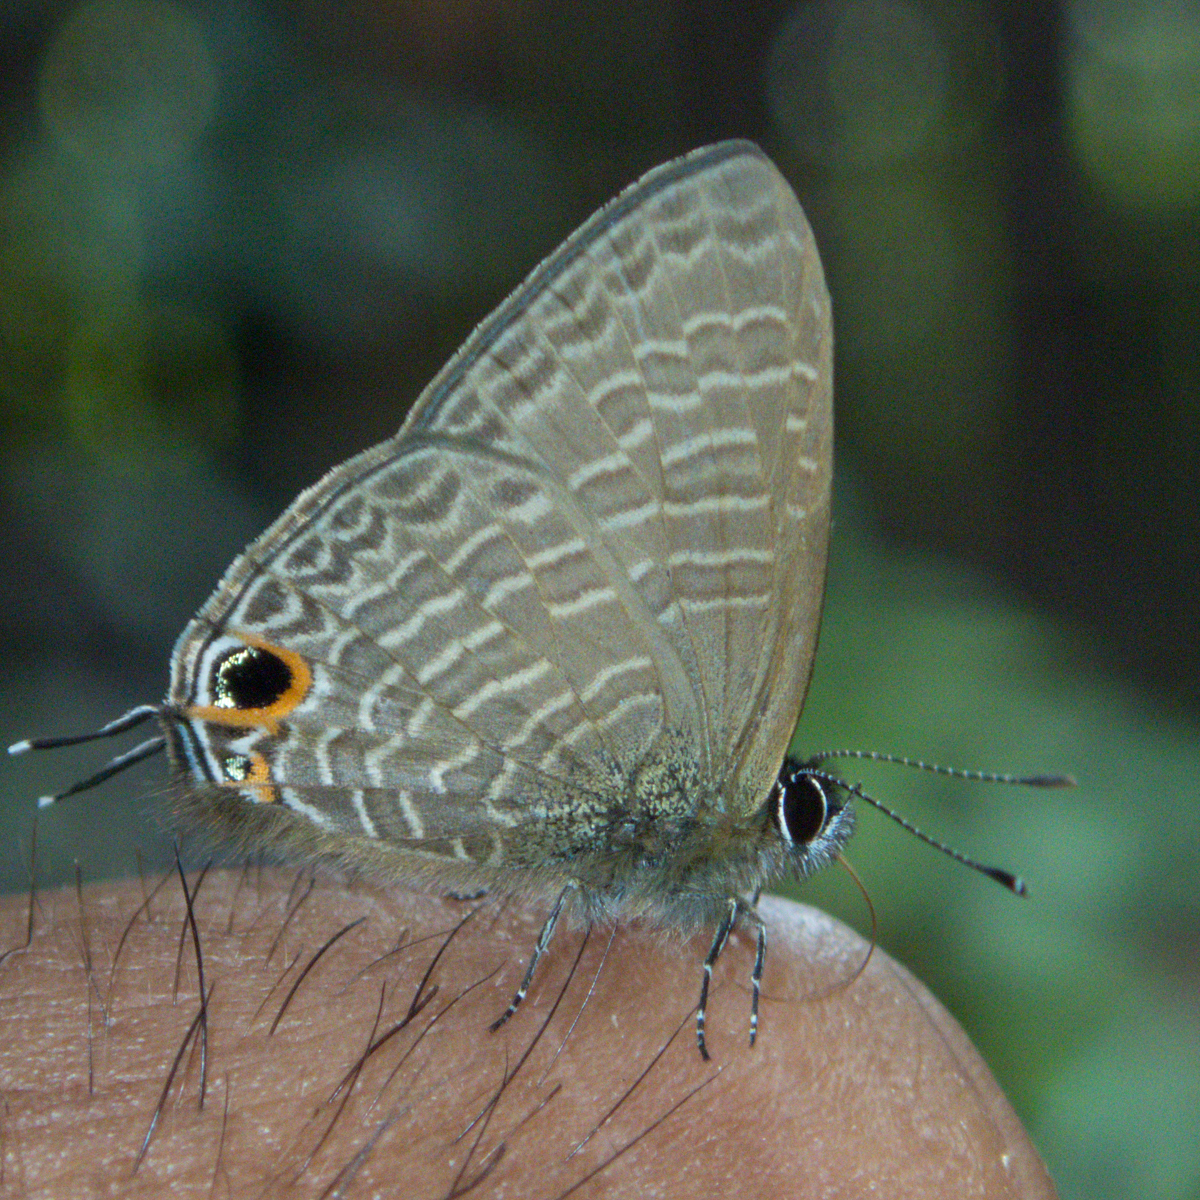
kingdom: Animalia
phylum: Arthropoda
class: Insecta
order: Lepidoptera
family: Lycaenidae
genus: Ionolyce
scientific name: Ionolyce helicon
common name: Pointed line blue
